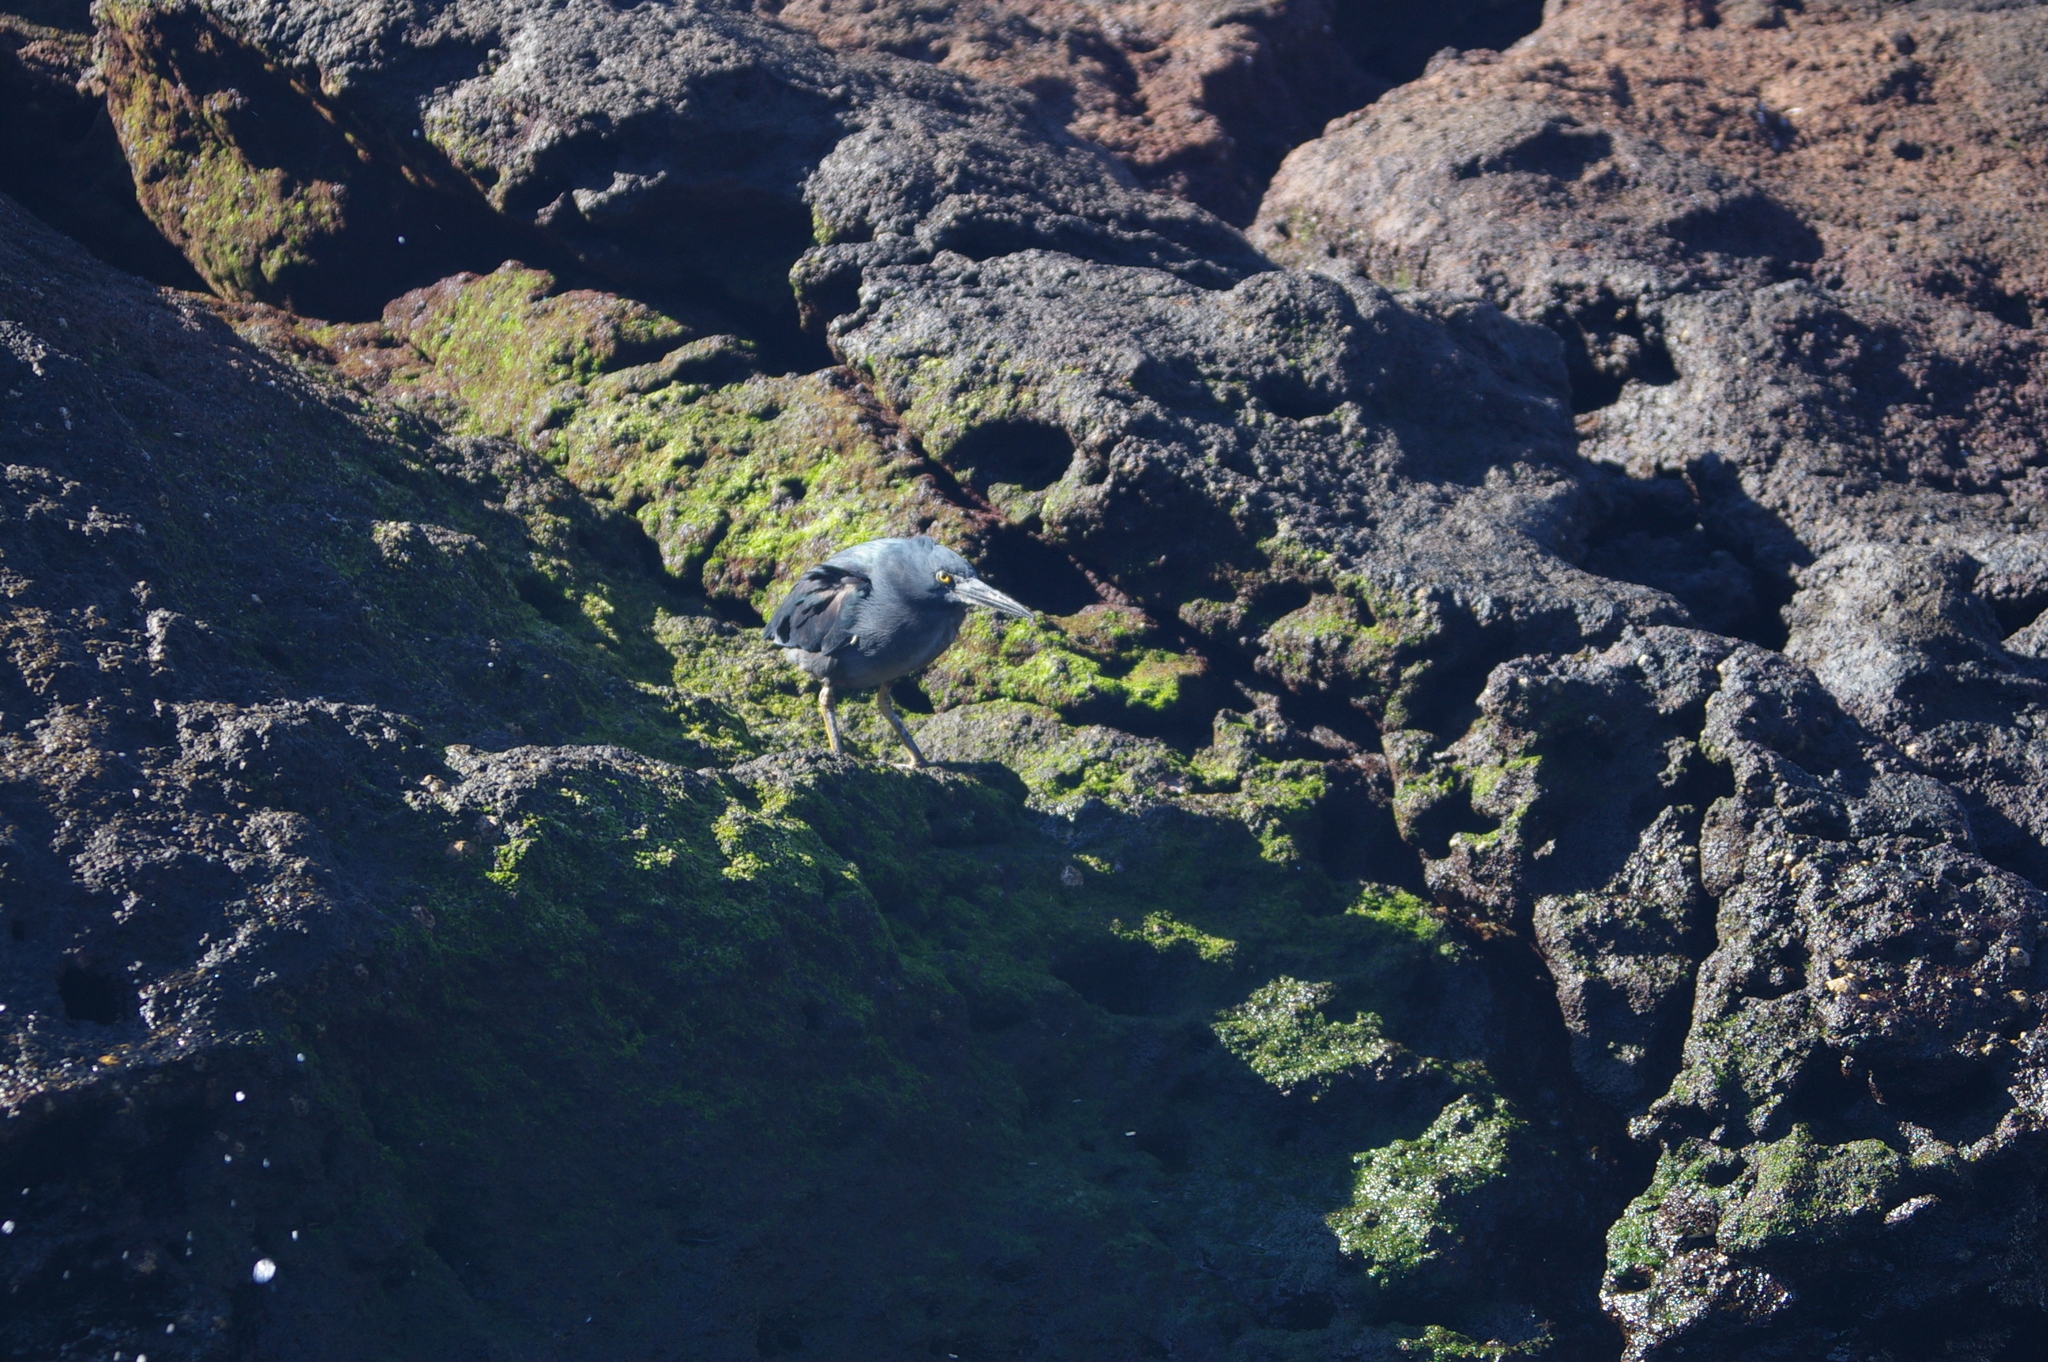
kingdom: Animalia
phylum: Chordata
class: Aves
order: Pelecaniformes
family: Ardeidae
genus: Butorides
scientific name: Butorides striata
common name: Striated heron
